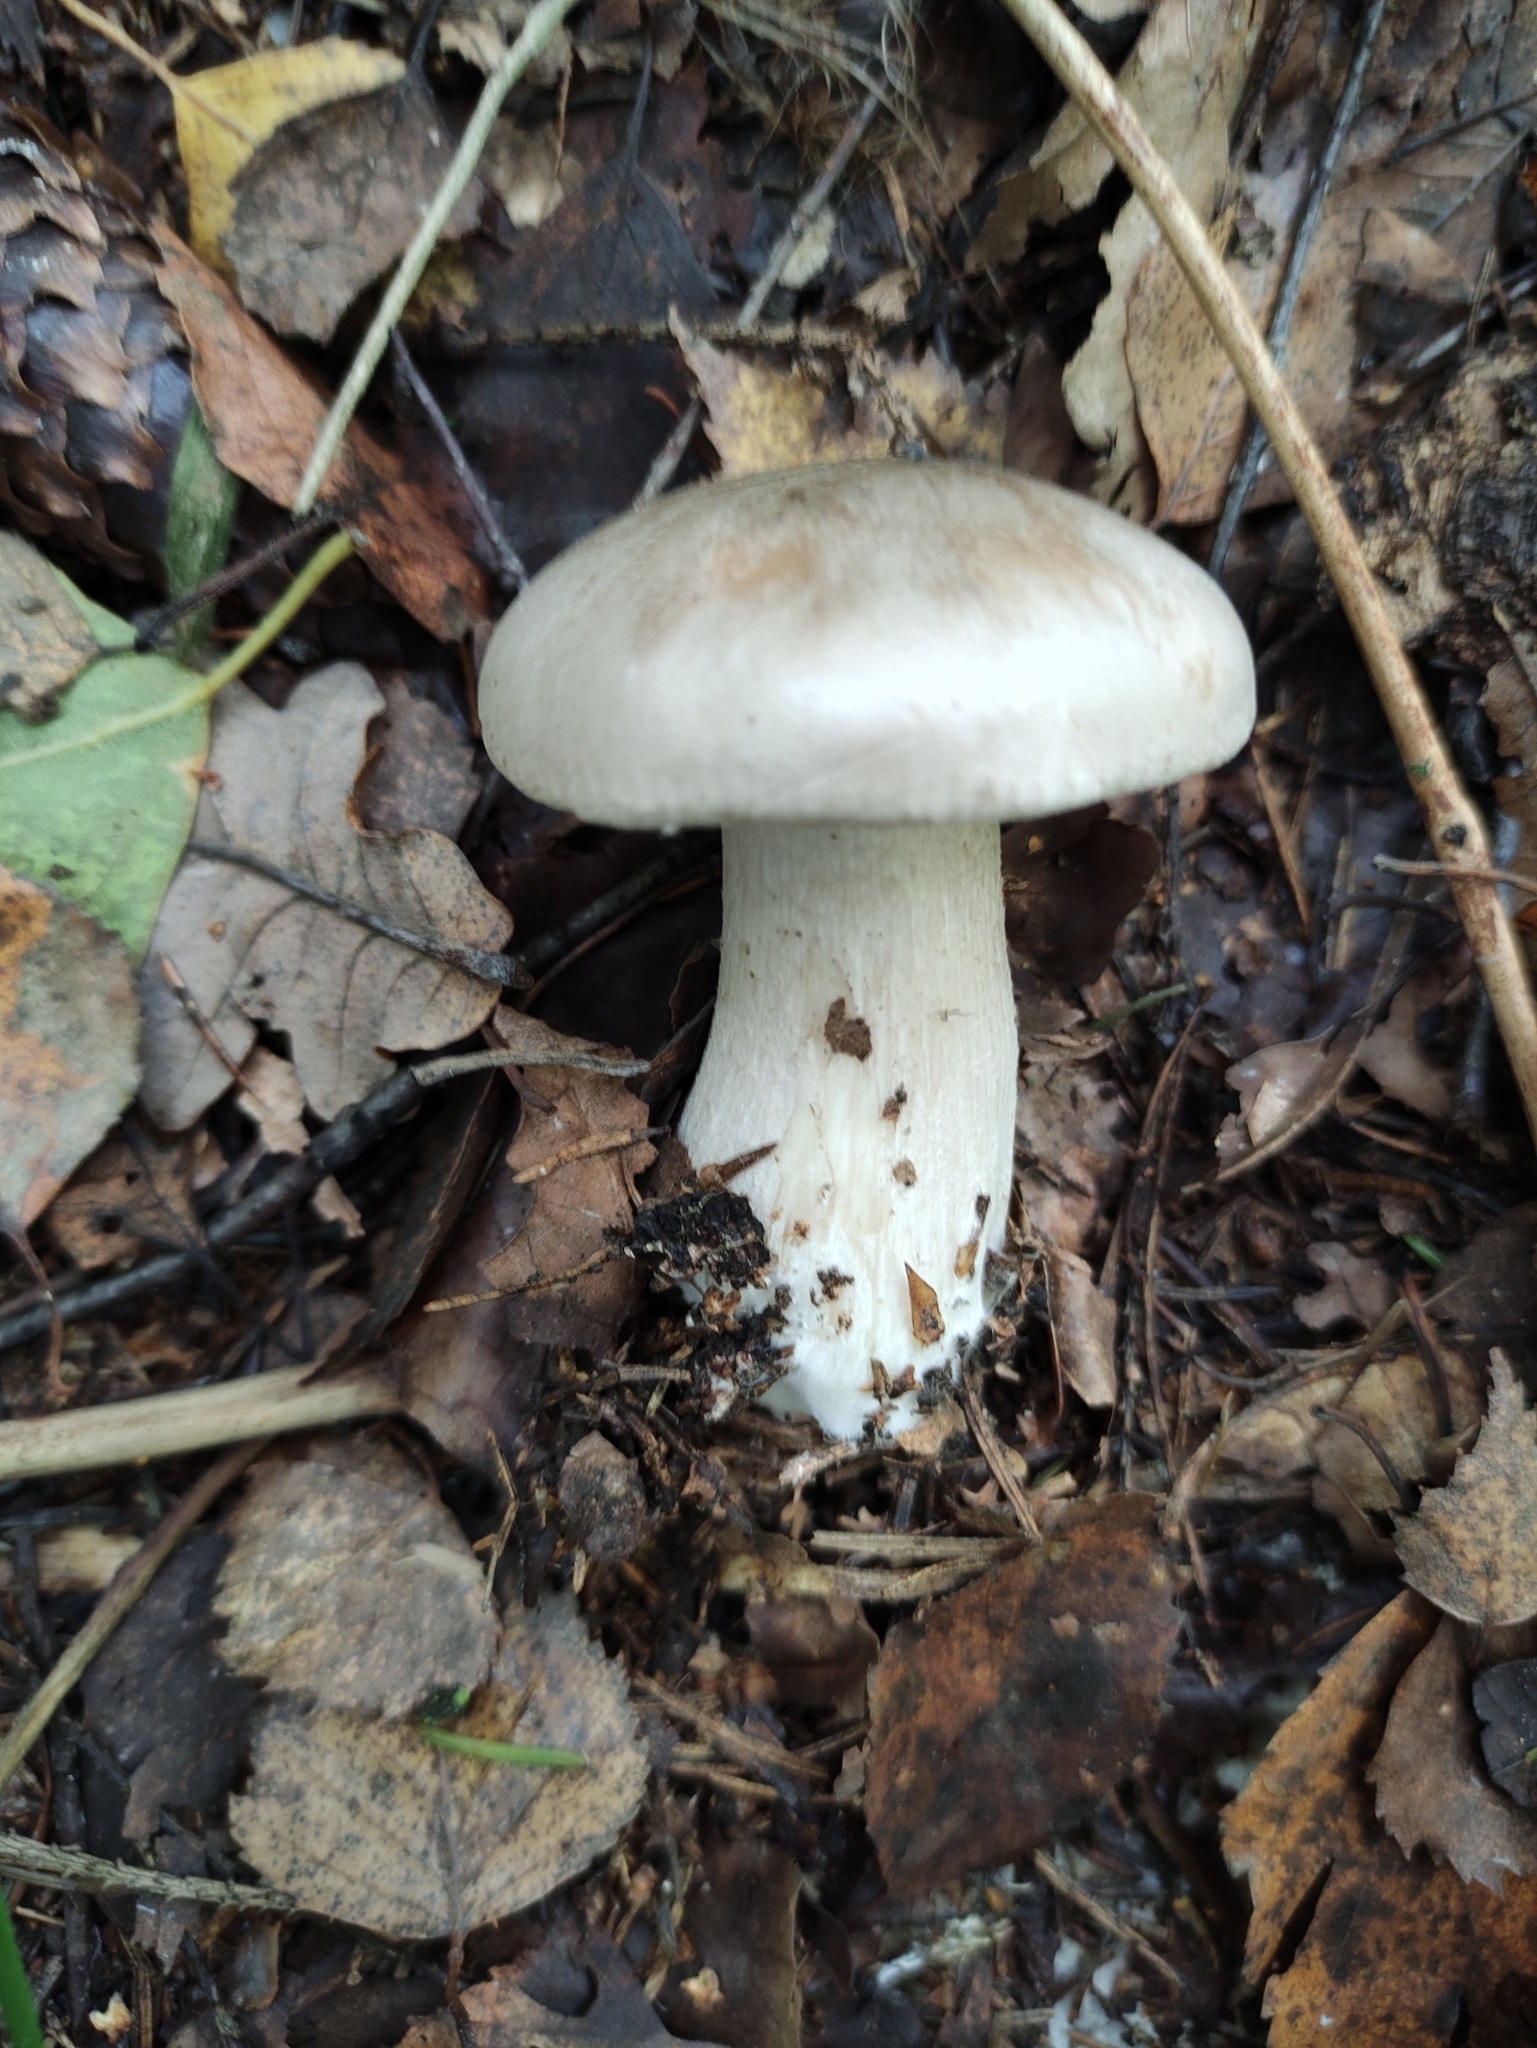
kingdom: Fungi
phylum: Basidiomycota
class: Agaricomycetes
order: Agaricales
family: Tricholomataceae
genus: Clitocybe
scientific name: Clitocybe nebularis
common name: Clouded agaric
